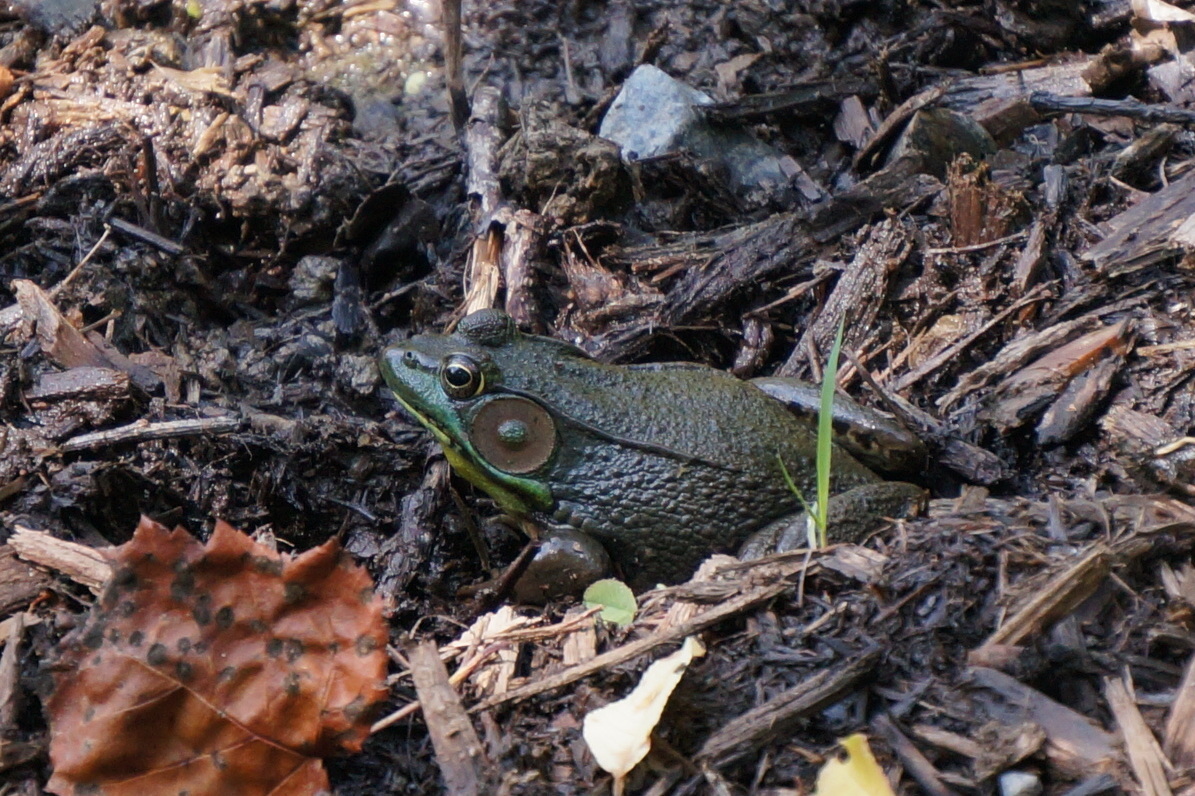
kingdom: Animalia
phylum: Chordata
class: Amphibia
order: Anura
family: Ranidae
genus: Lithobates
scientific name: Lithobates clamitans
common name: Green frog
